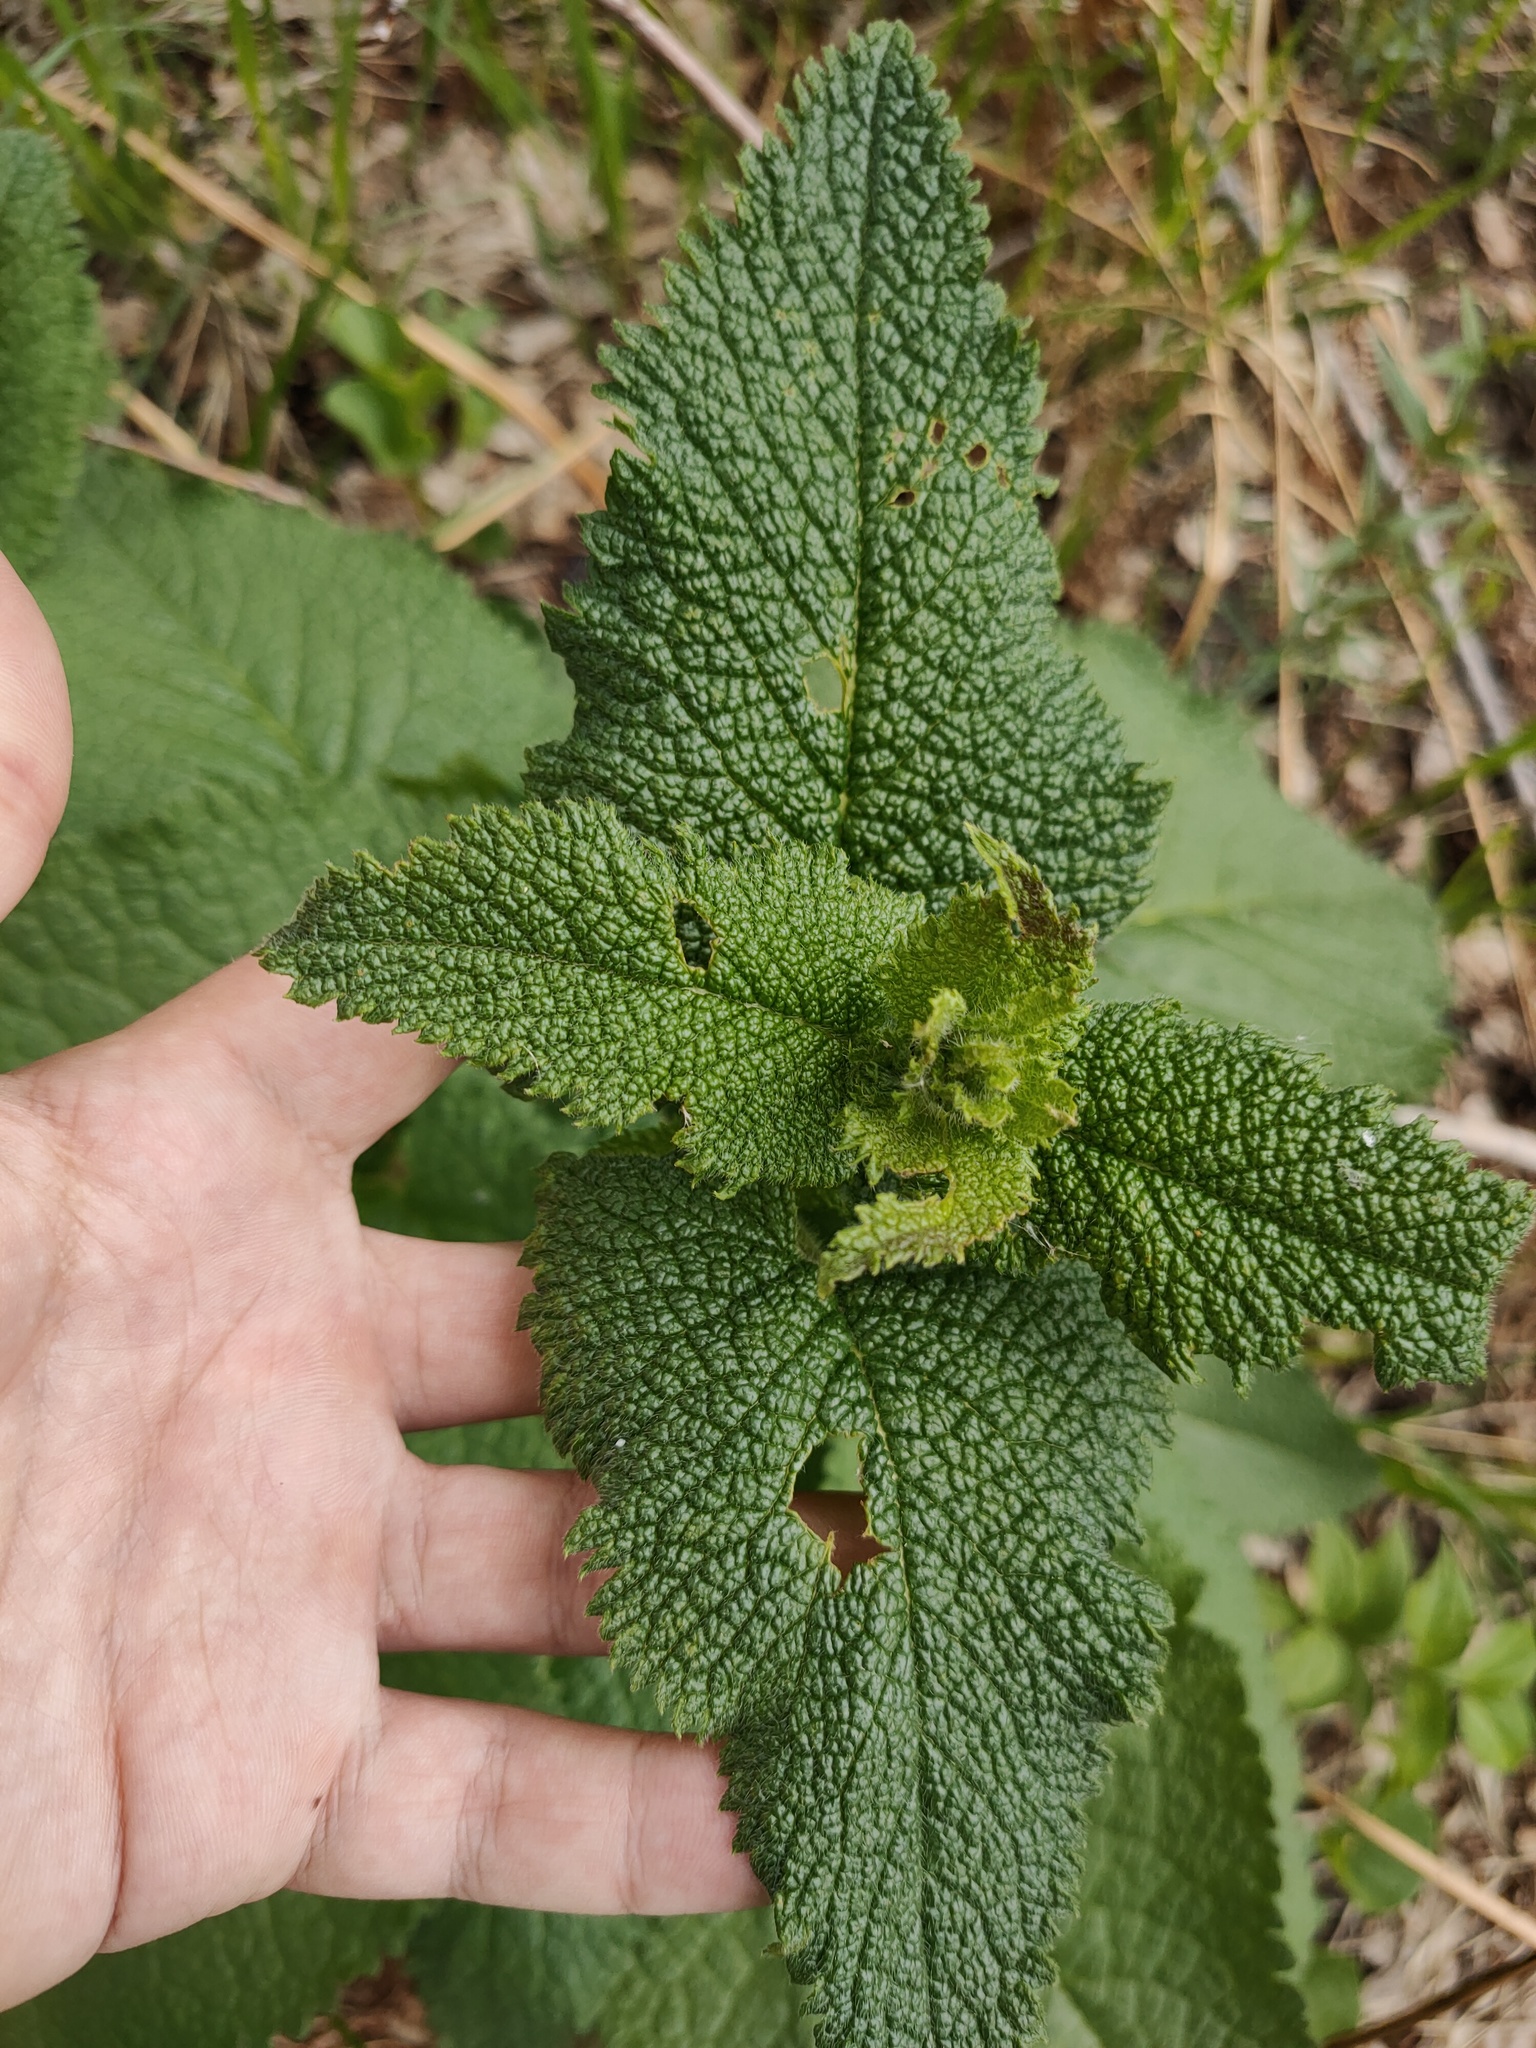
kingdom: Plantae
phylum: Tracheophyta
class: Magnoliopsida
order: Lamiales
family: Lamiaceae
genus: Phlomoides
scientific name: Phlomoides tuberosa
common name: Tuberous jerusalem sage
